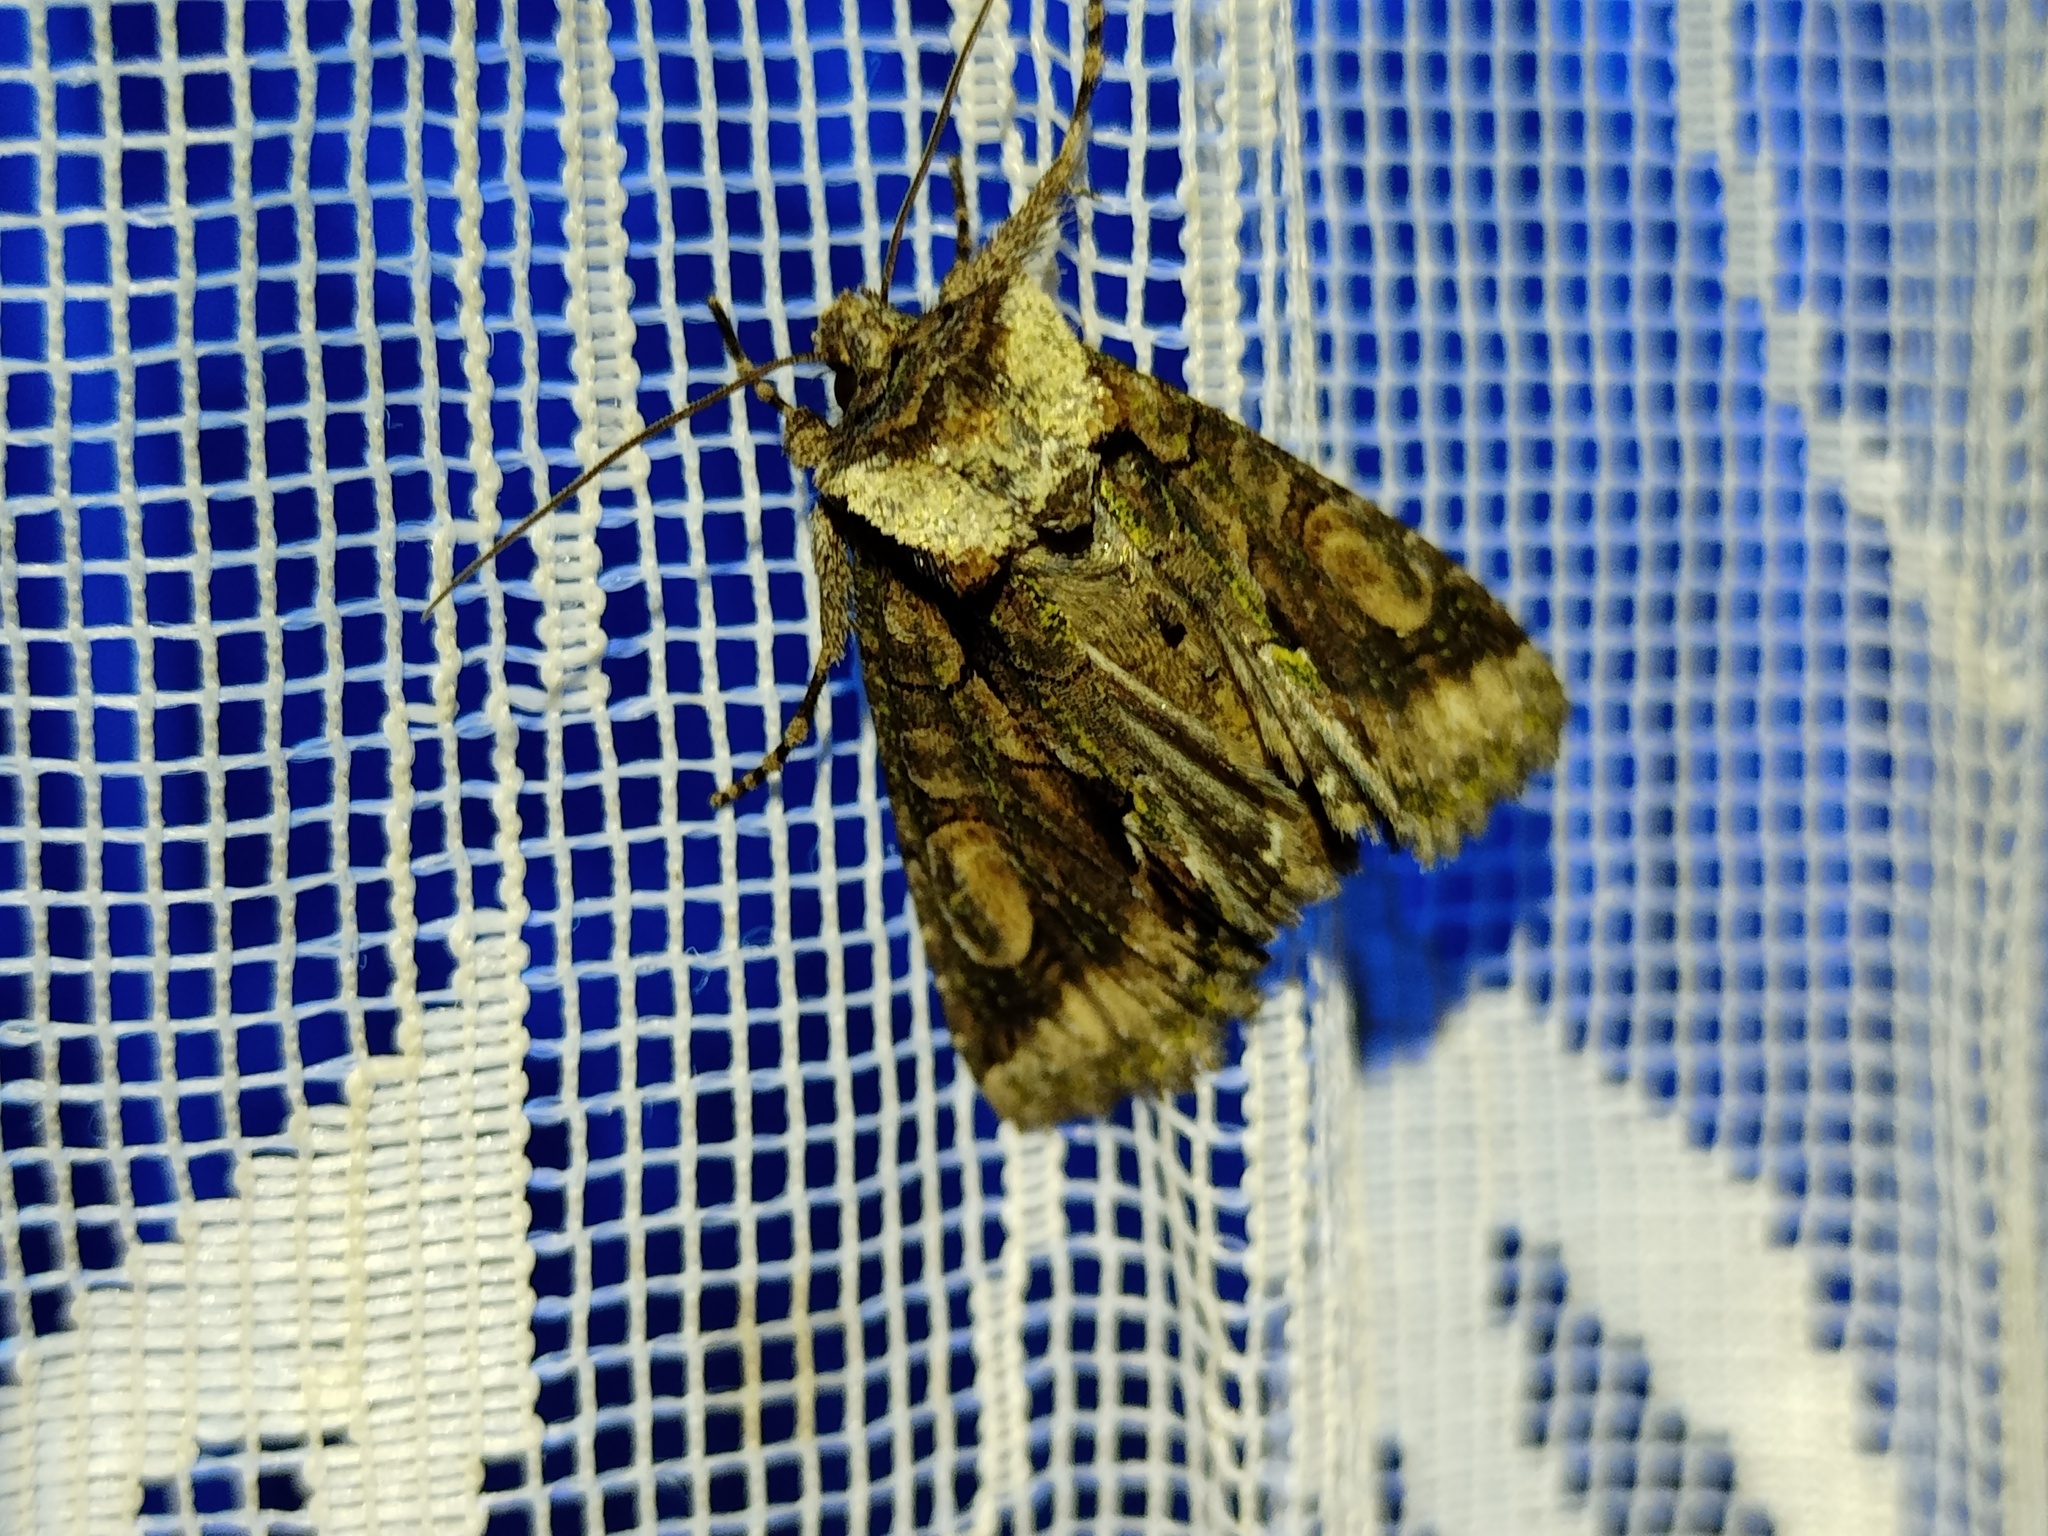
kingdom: Animalia
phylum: Arthropoda
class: Insecta
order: Lepidoptera
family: Noctuidae
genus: Allophyes
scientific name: Allophyes oxyacanthae
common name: Green-brindled crescent
